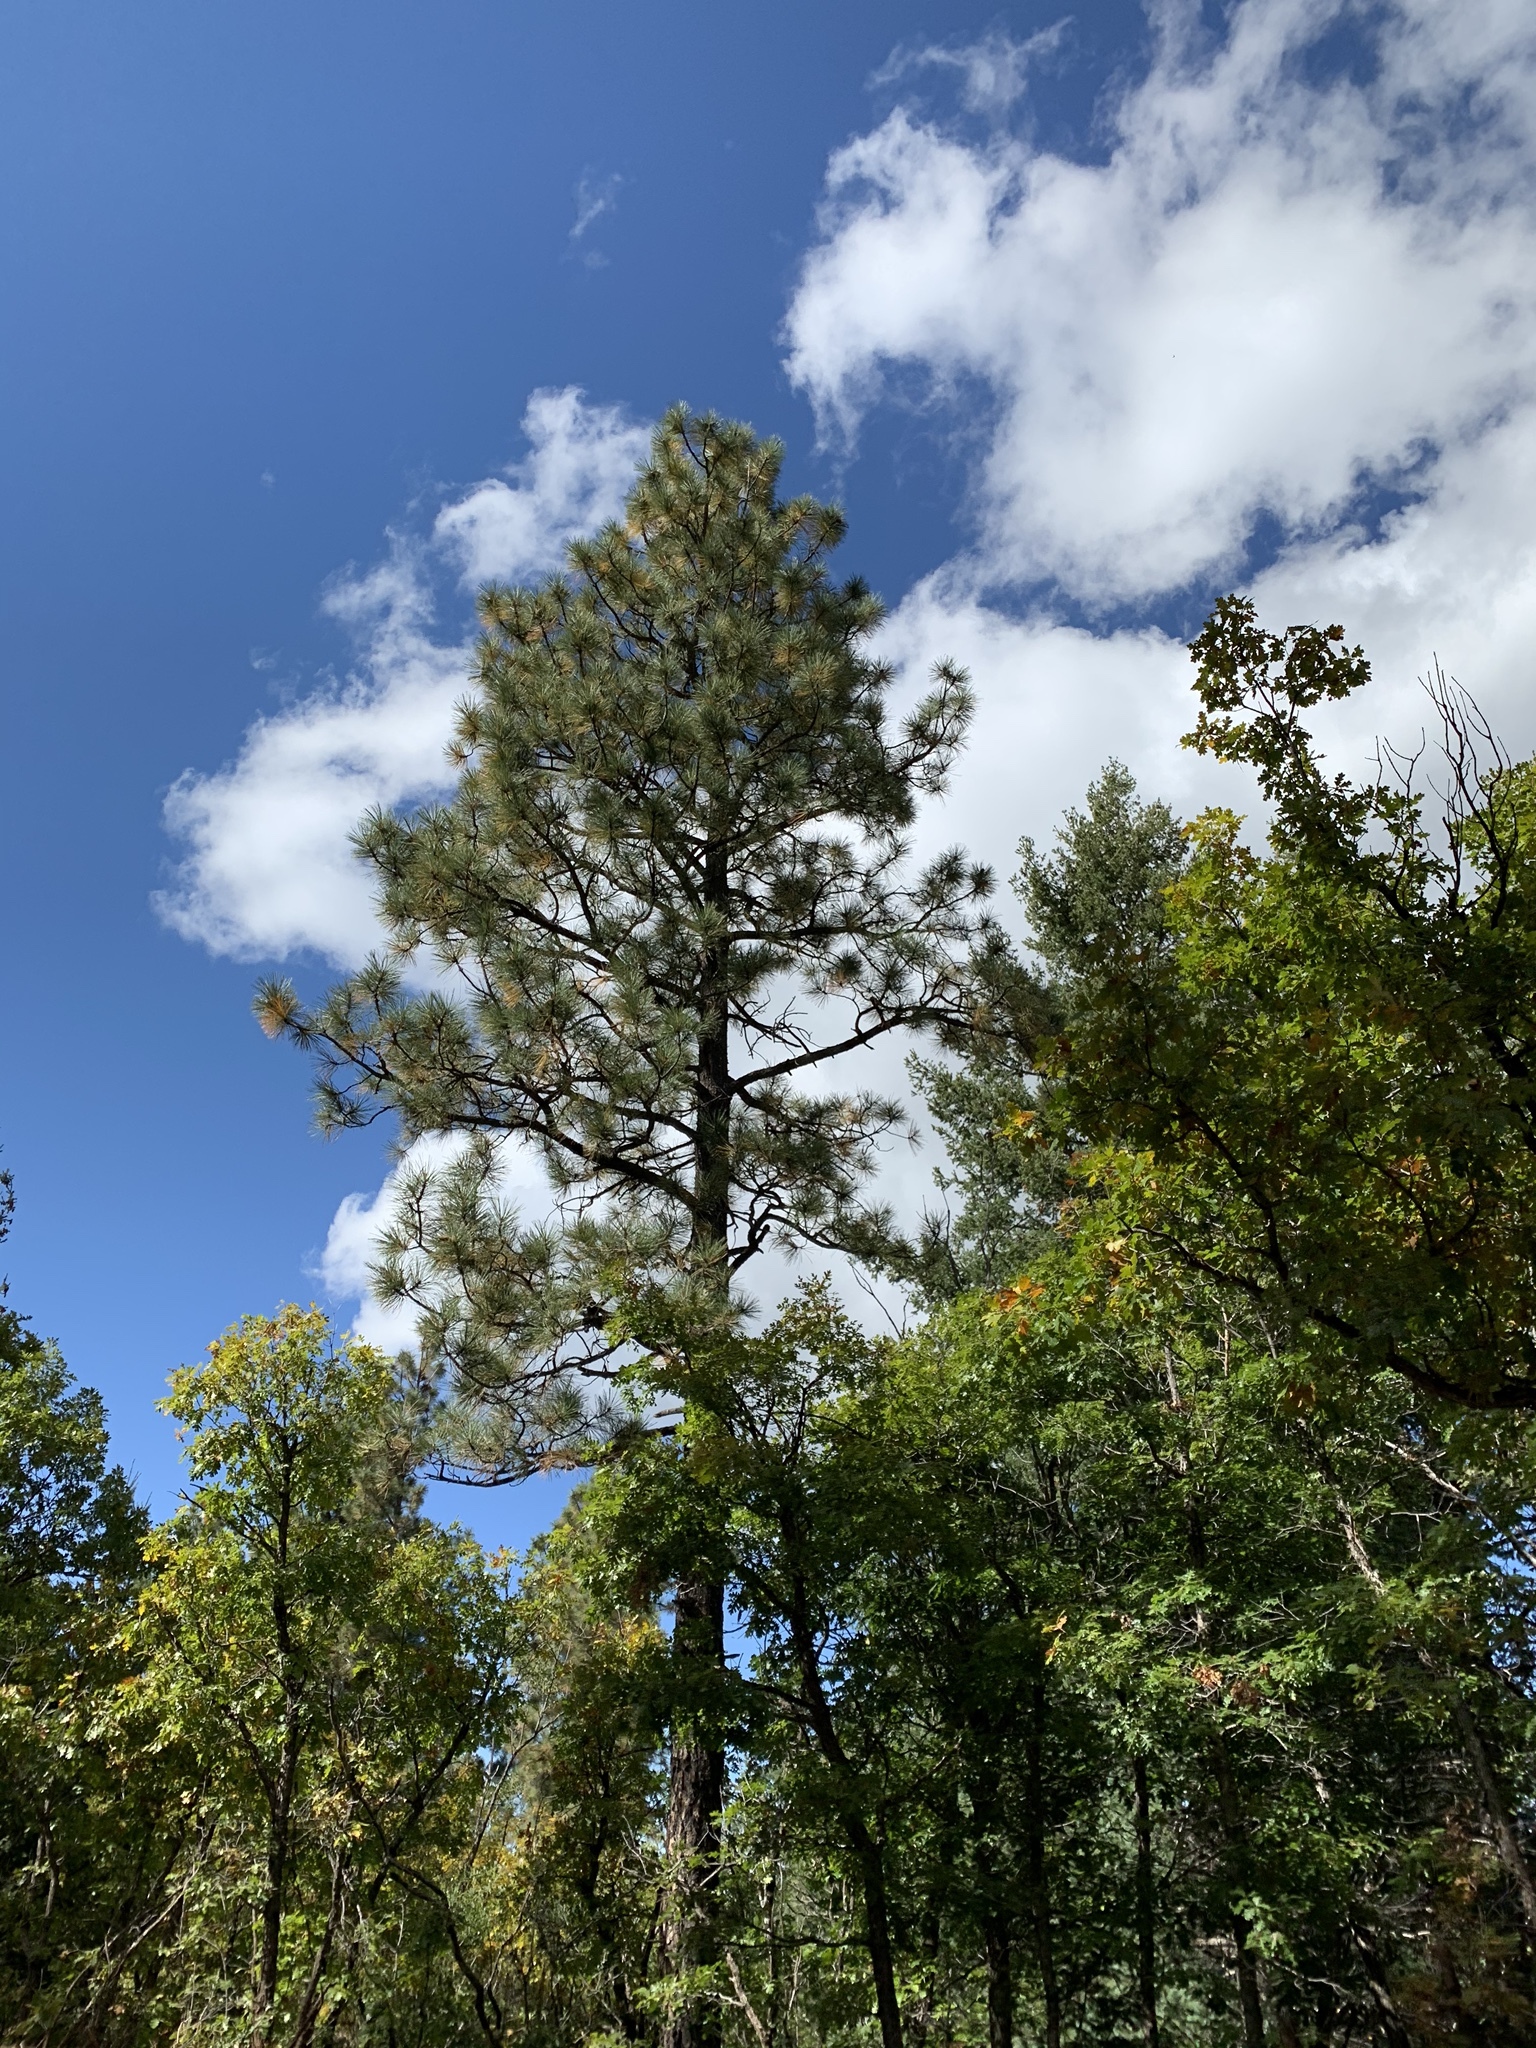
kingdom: Plantae
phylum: Tracheophyta
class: Pinopsida
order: Pinales
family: Pinaceae
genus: Pinus
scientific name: Pinus ponderosa
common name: Western yellow-pine
